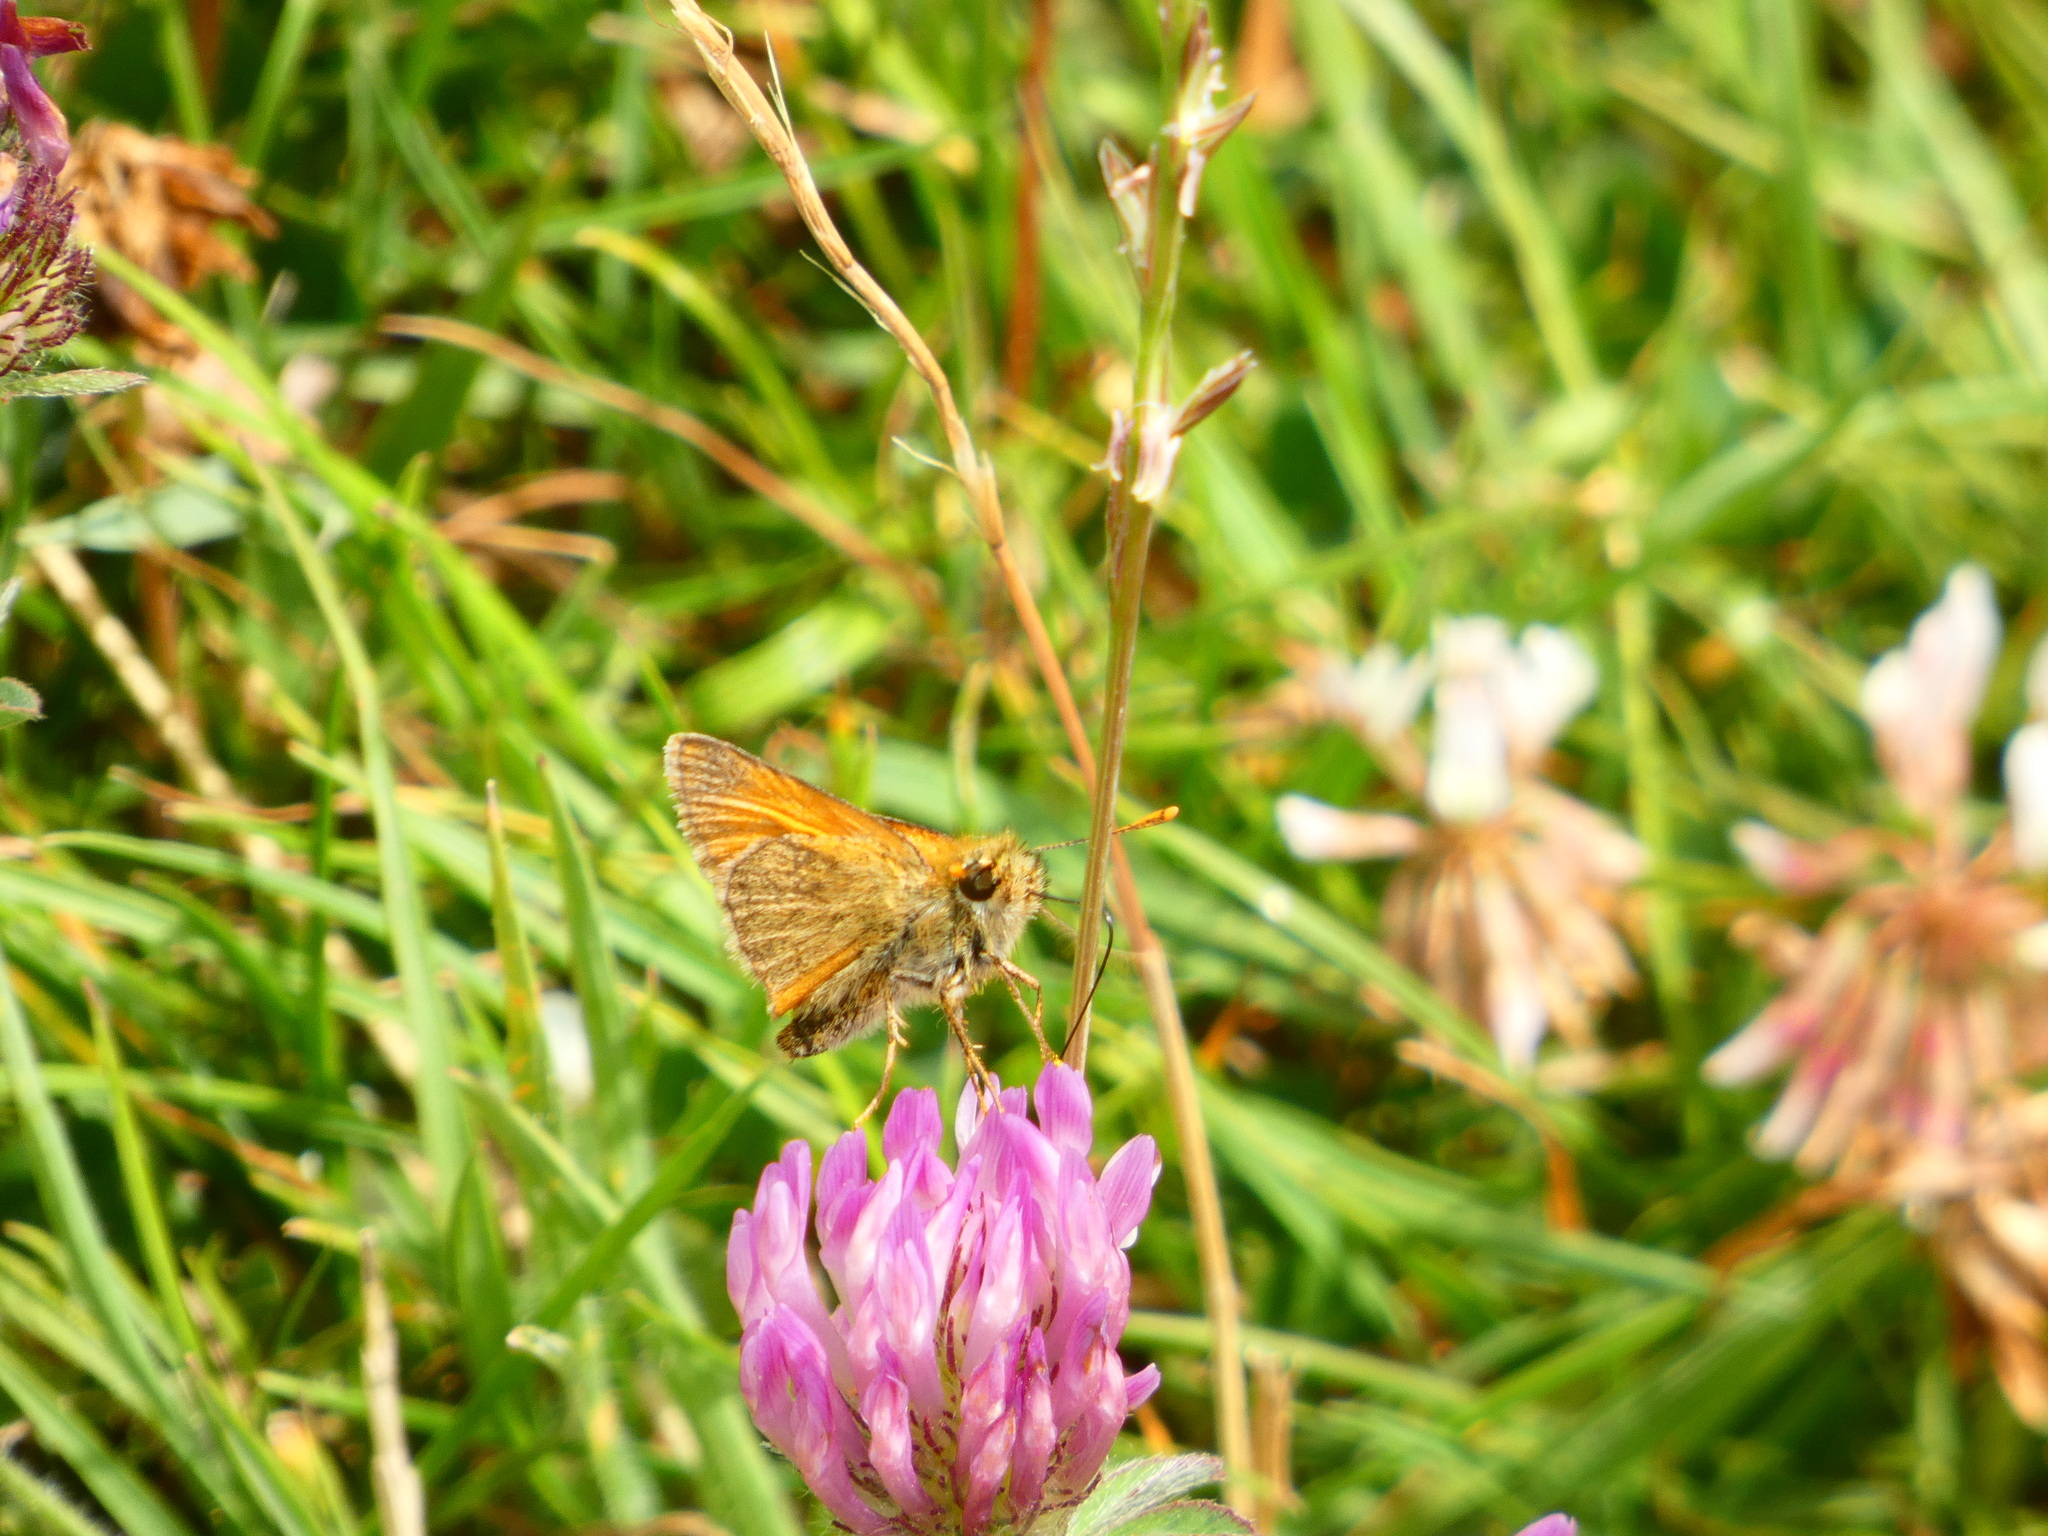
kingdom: Animalia
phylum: Arthropoda
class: Insecta
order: Lepidoptera
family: Hesperiidae
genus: Thymelicus
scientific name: Thymelicus sylvestris
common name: Small skipper
